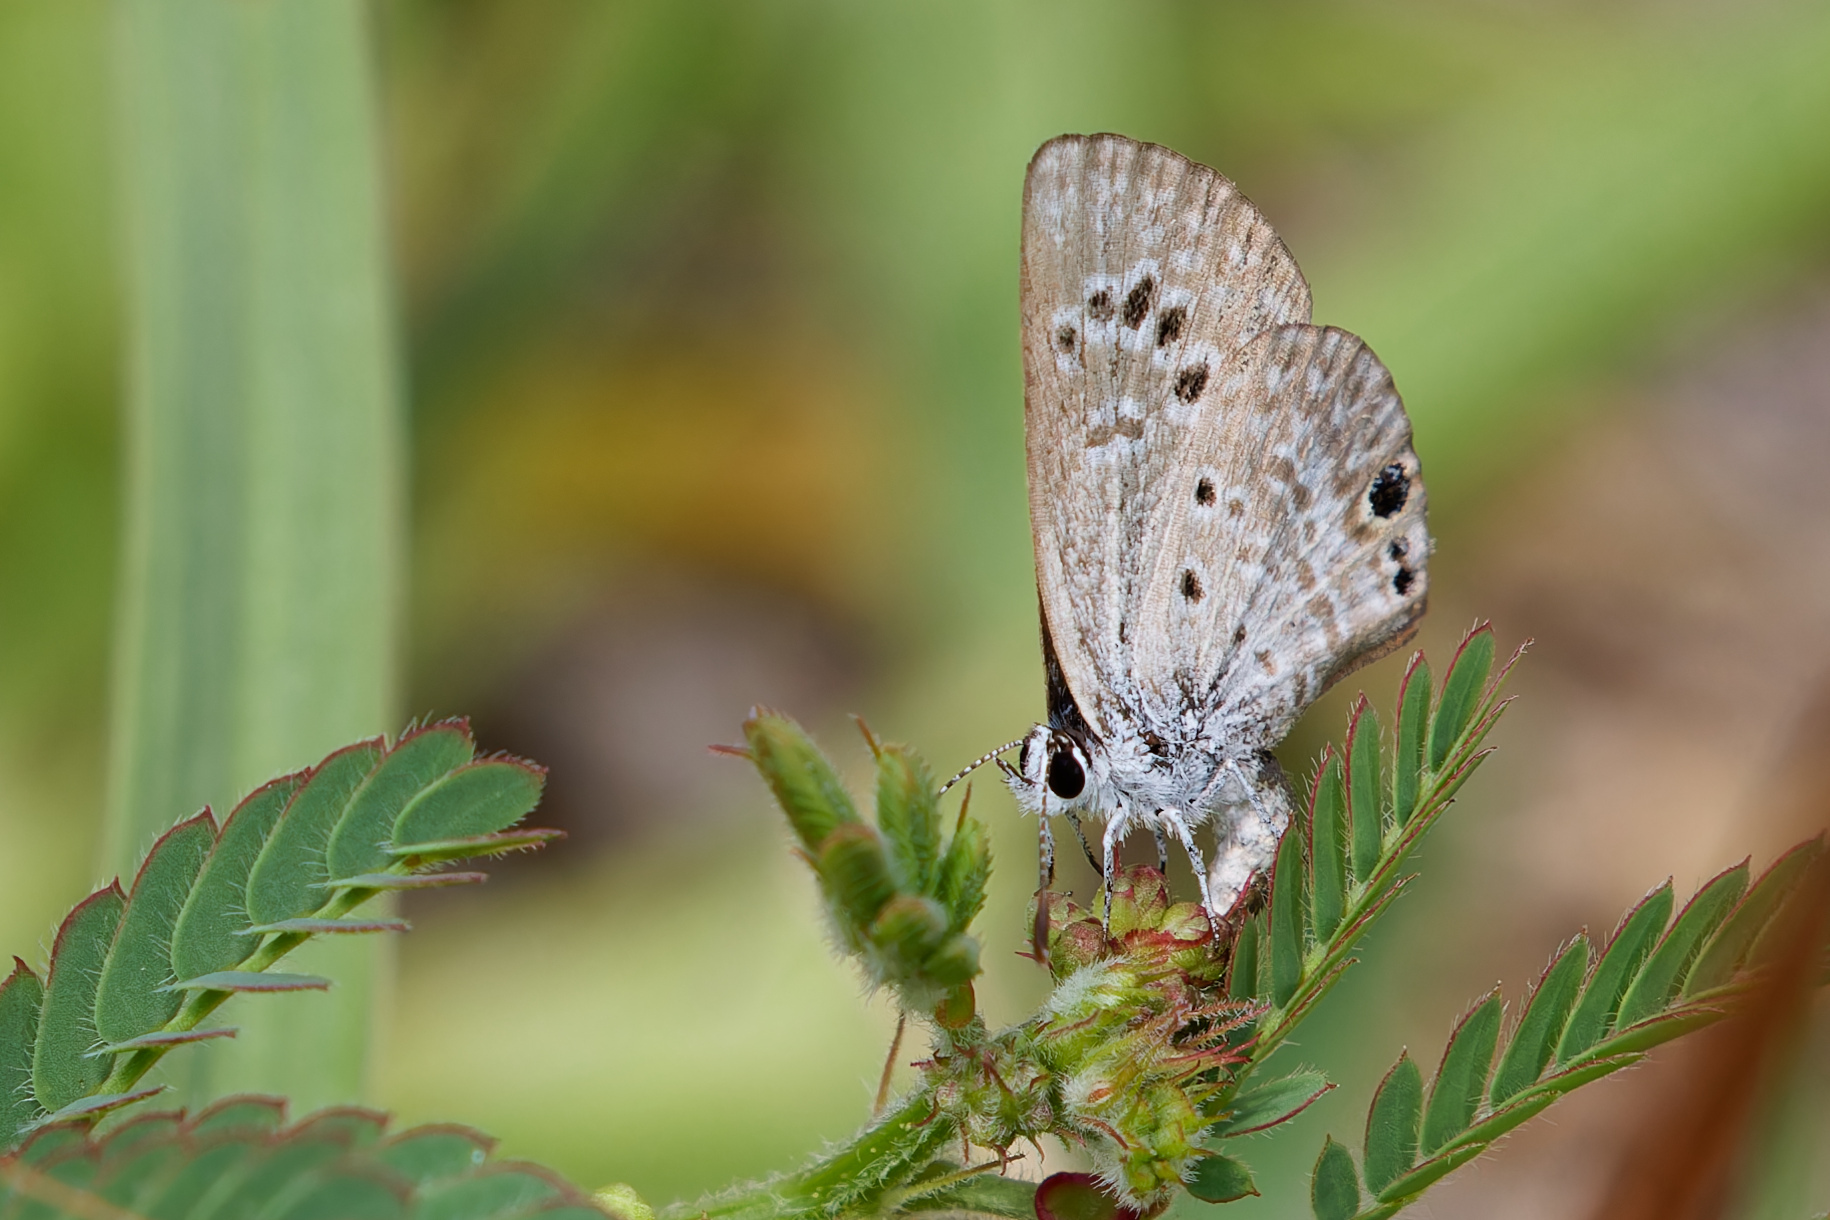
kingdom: Animalia
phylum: Arthropoda
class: Insecta
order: Lepidoptera
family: Lycaenidae
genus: Echinargus
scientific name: Echinargus isola
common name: Reakirt's blue
